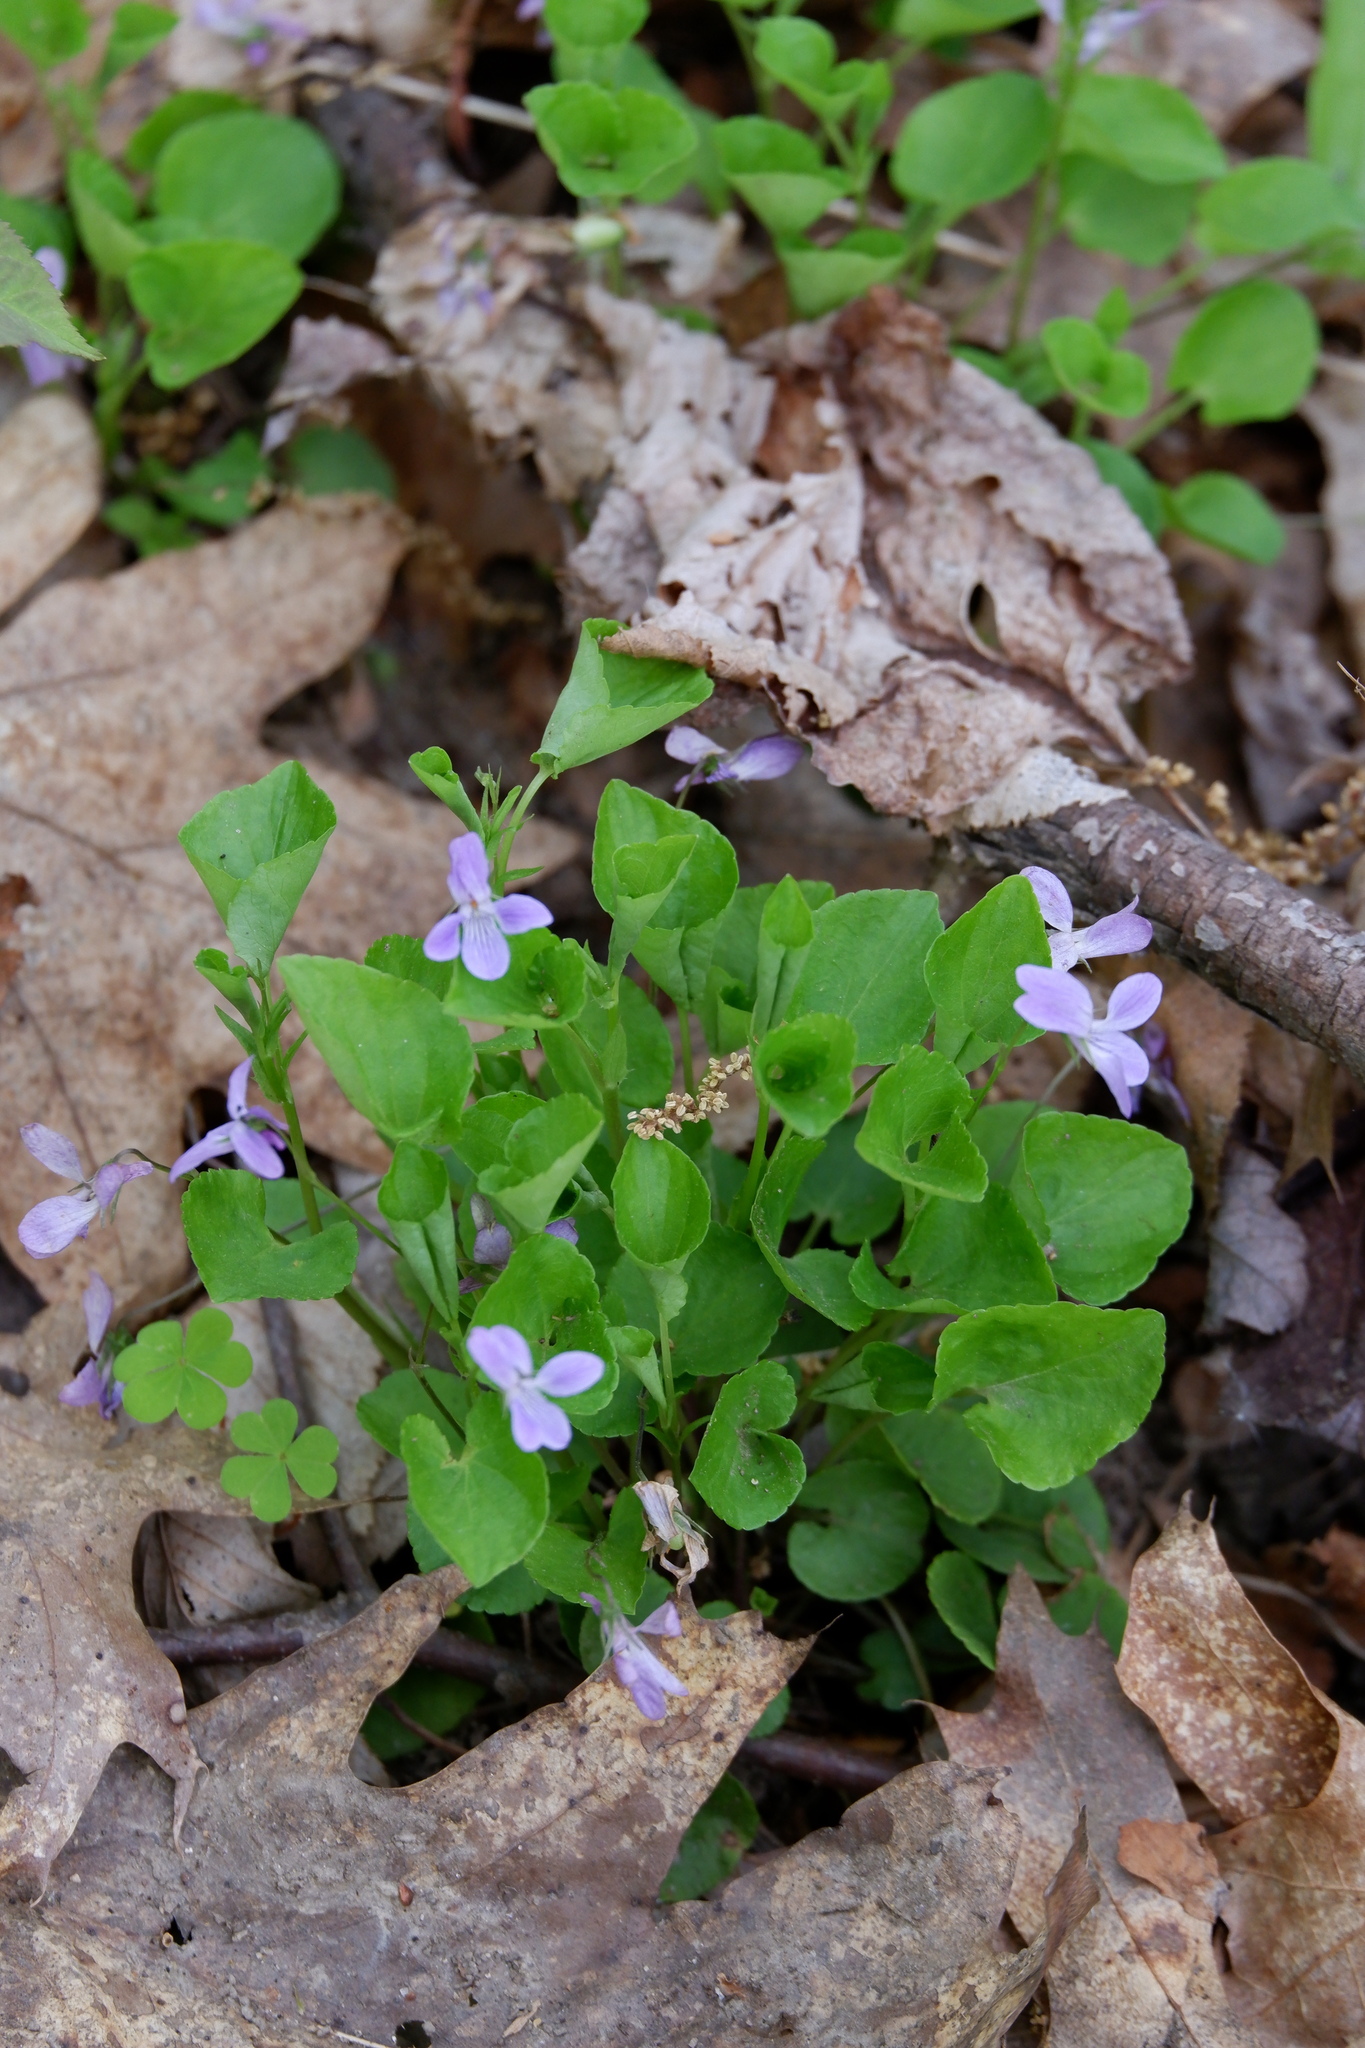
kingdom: Plantae
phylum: Tracheophyta
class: Magnoliopsida
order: Malpighiales
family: Violaceae
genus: Viola
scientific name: Viola labradorica
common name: Labrador violet
